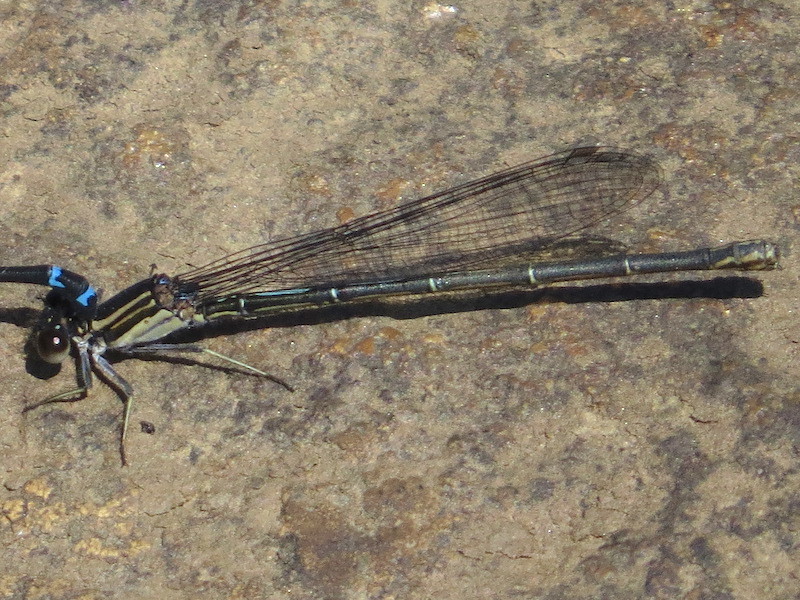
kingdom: Animalia
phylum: Arthropoda
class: Insecta
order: Odonata
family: Coenagrionidae
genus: Argia
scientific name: Argia translata
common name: Dusky dancer
